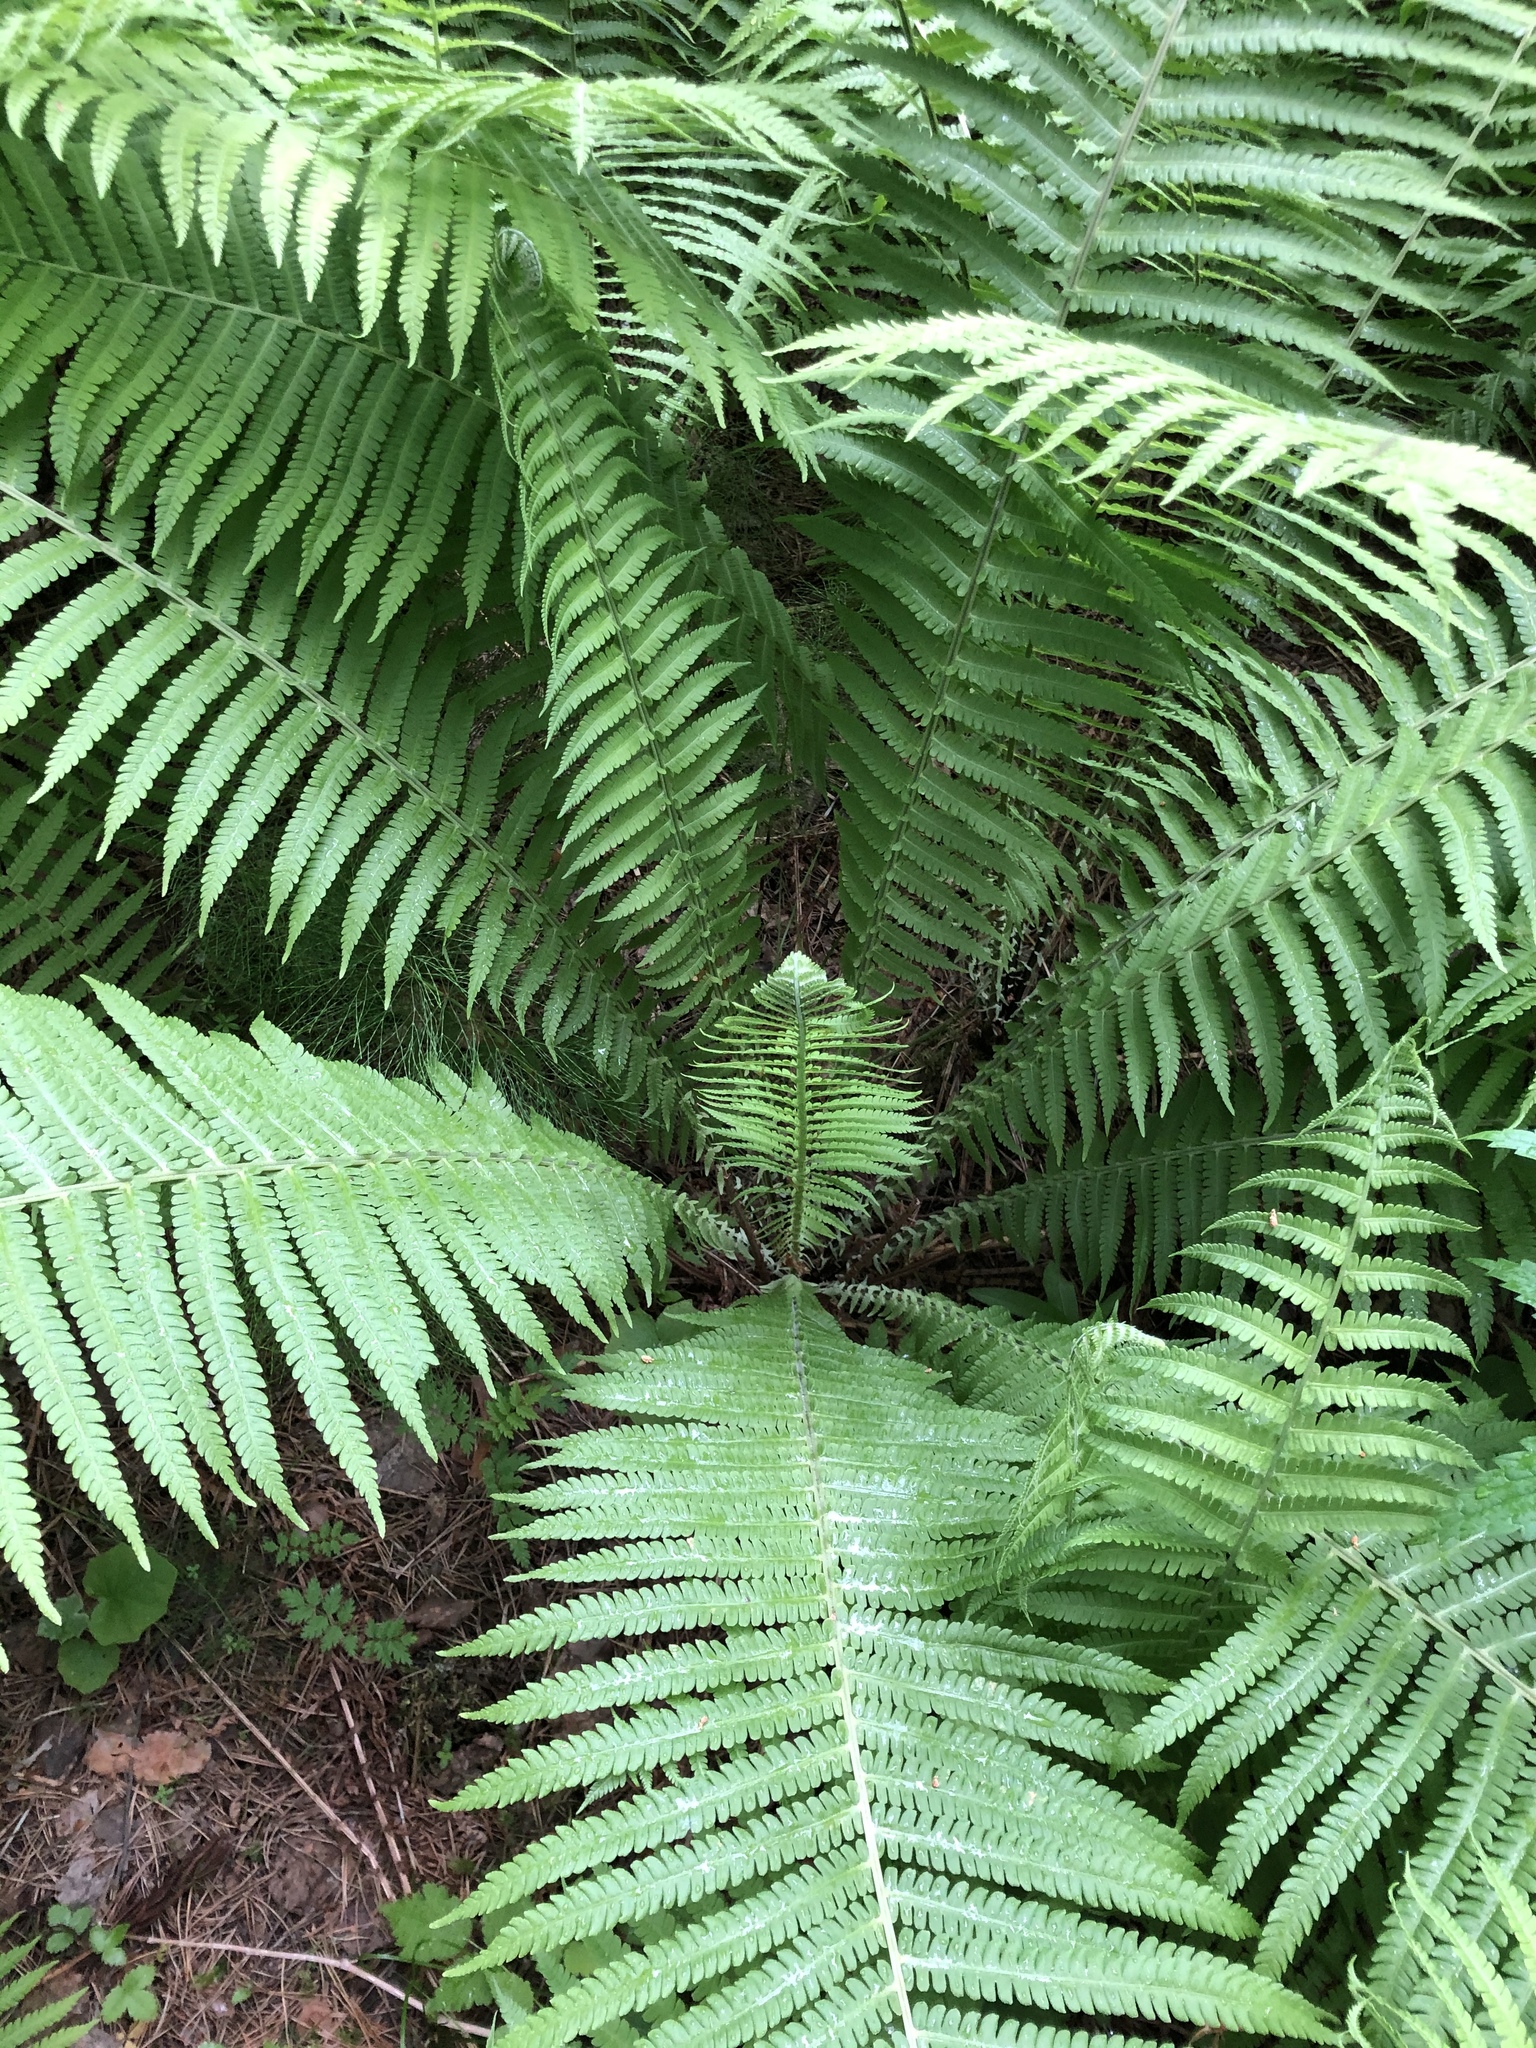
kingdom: Plantae
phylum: Tracheophyta
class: Polypodiopsida
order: Polypodiales
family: Onocleaceae
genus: Matteuccia
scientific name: Matteuccia struthiopteris
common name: Ostrich fern
